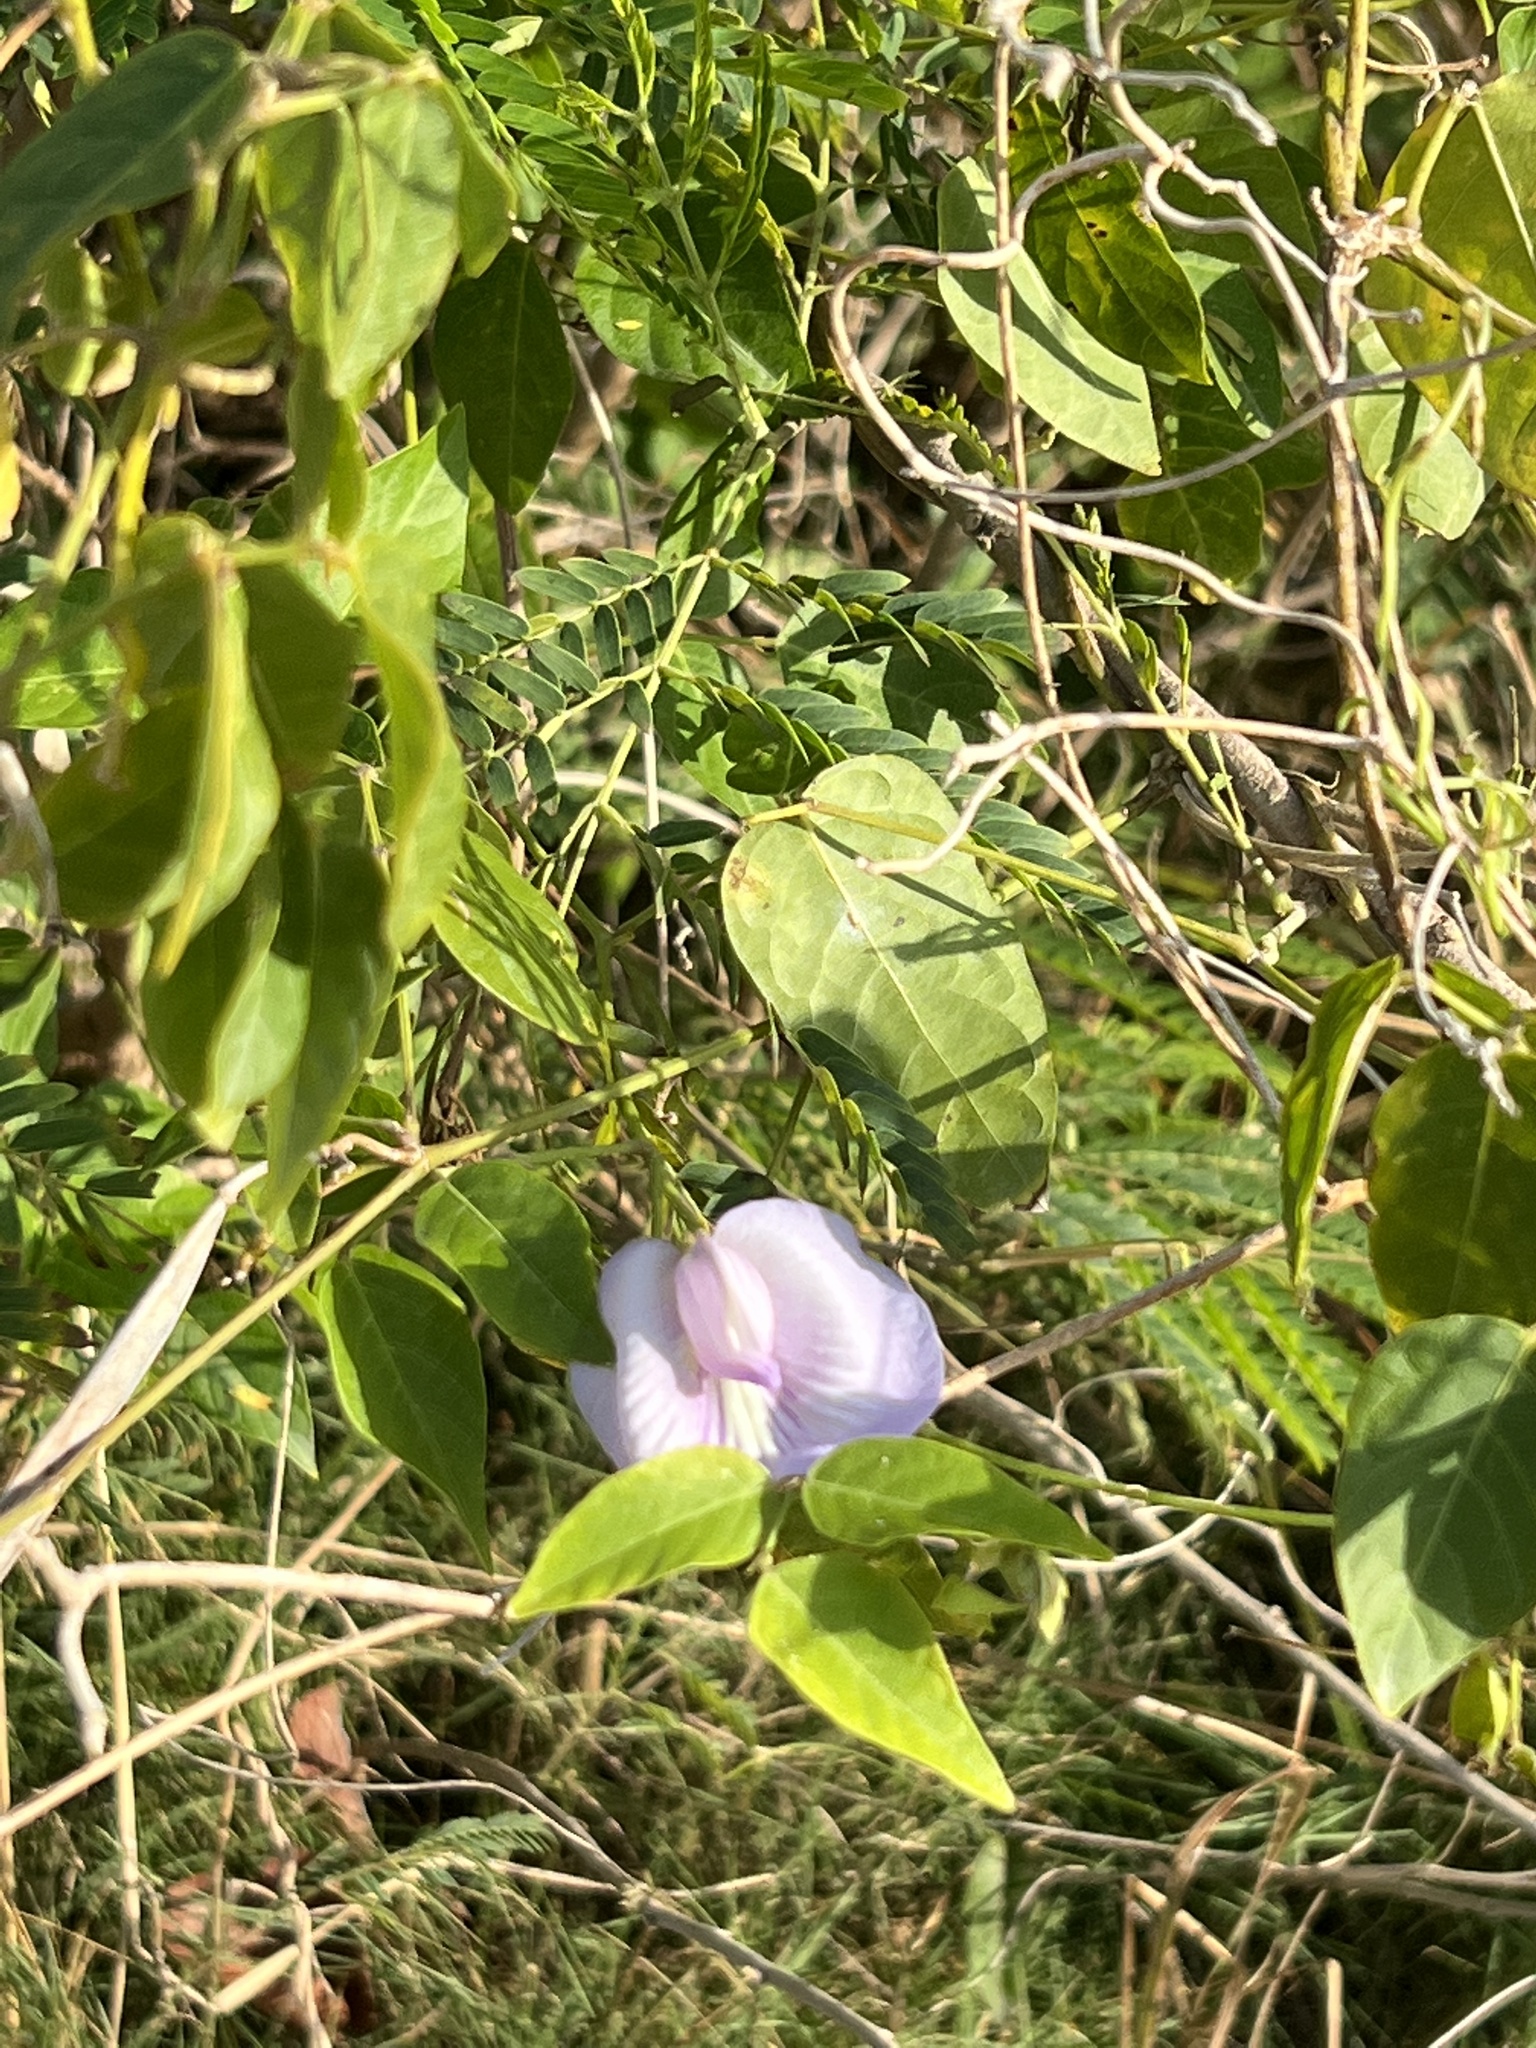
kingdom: Plantae
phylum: Tracheophyta
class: Magnoliopsida
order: Fabales
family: Fabaceae
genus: Centrosema
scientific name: Centrosema virginianum
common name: Butterfly-pea
